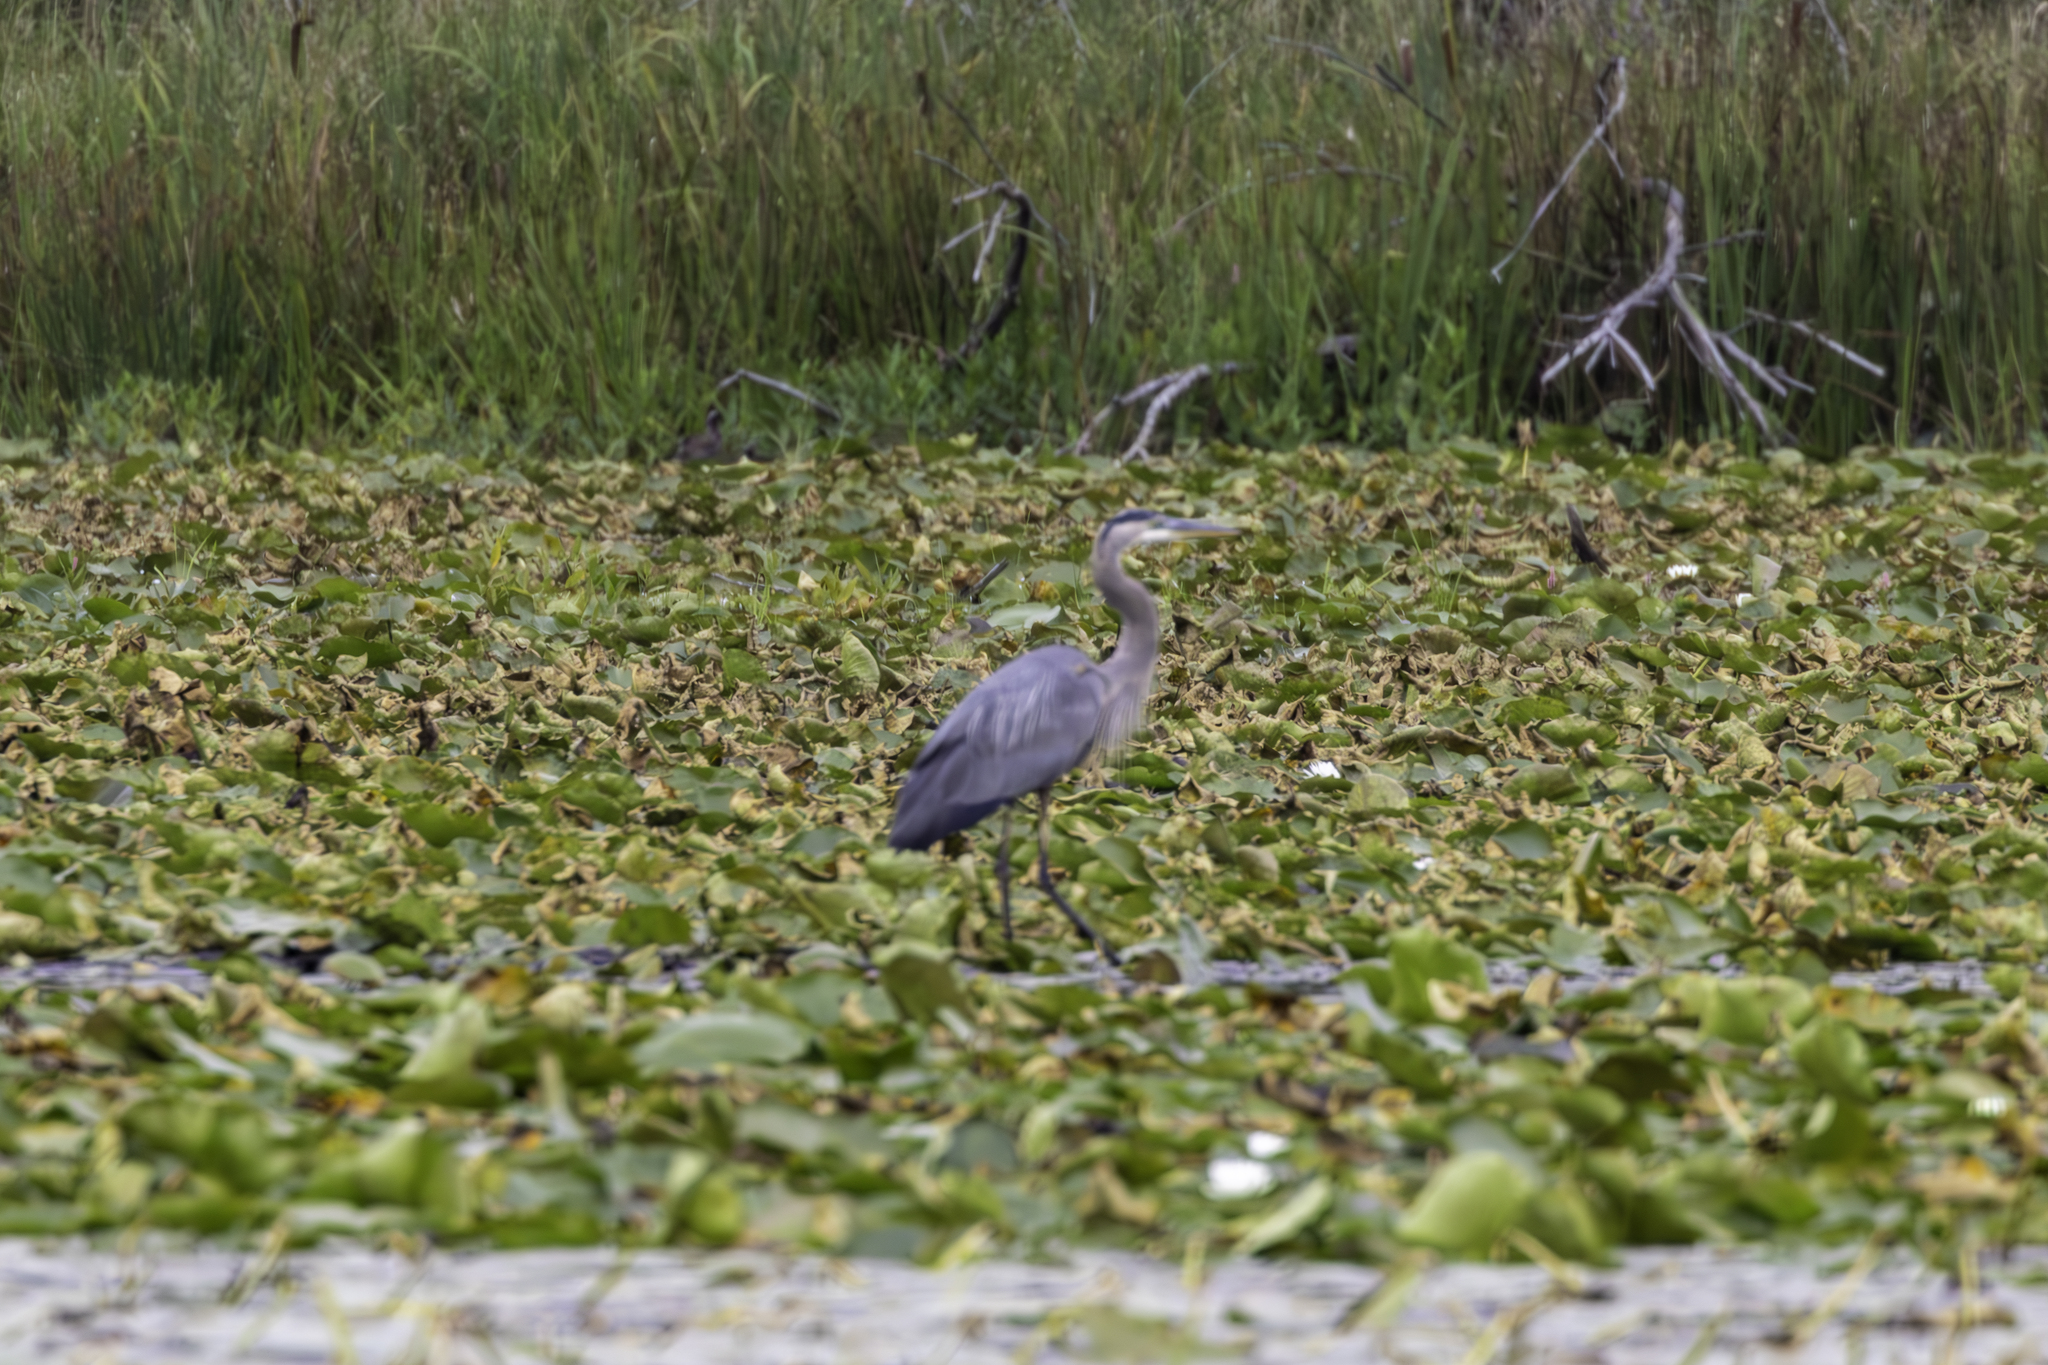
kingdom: Animalia
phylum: Chordata
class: Aves
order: Pelecaniformes
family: Ardeidae
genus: Ardea
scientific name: Ardea herodias
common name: Great blue heron
